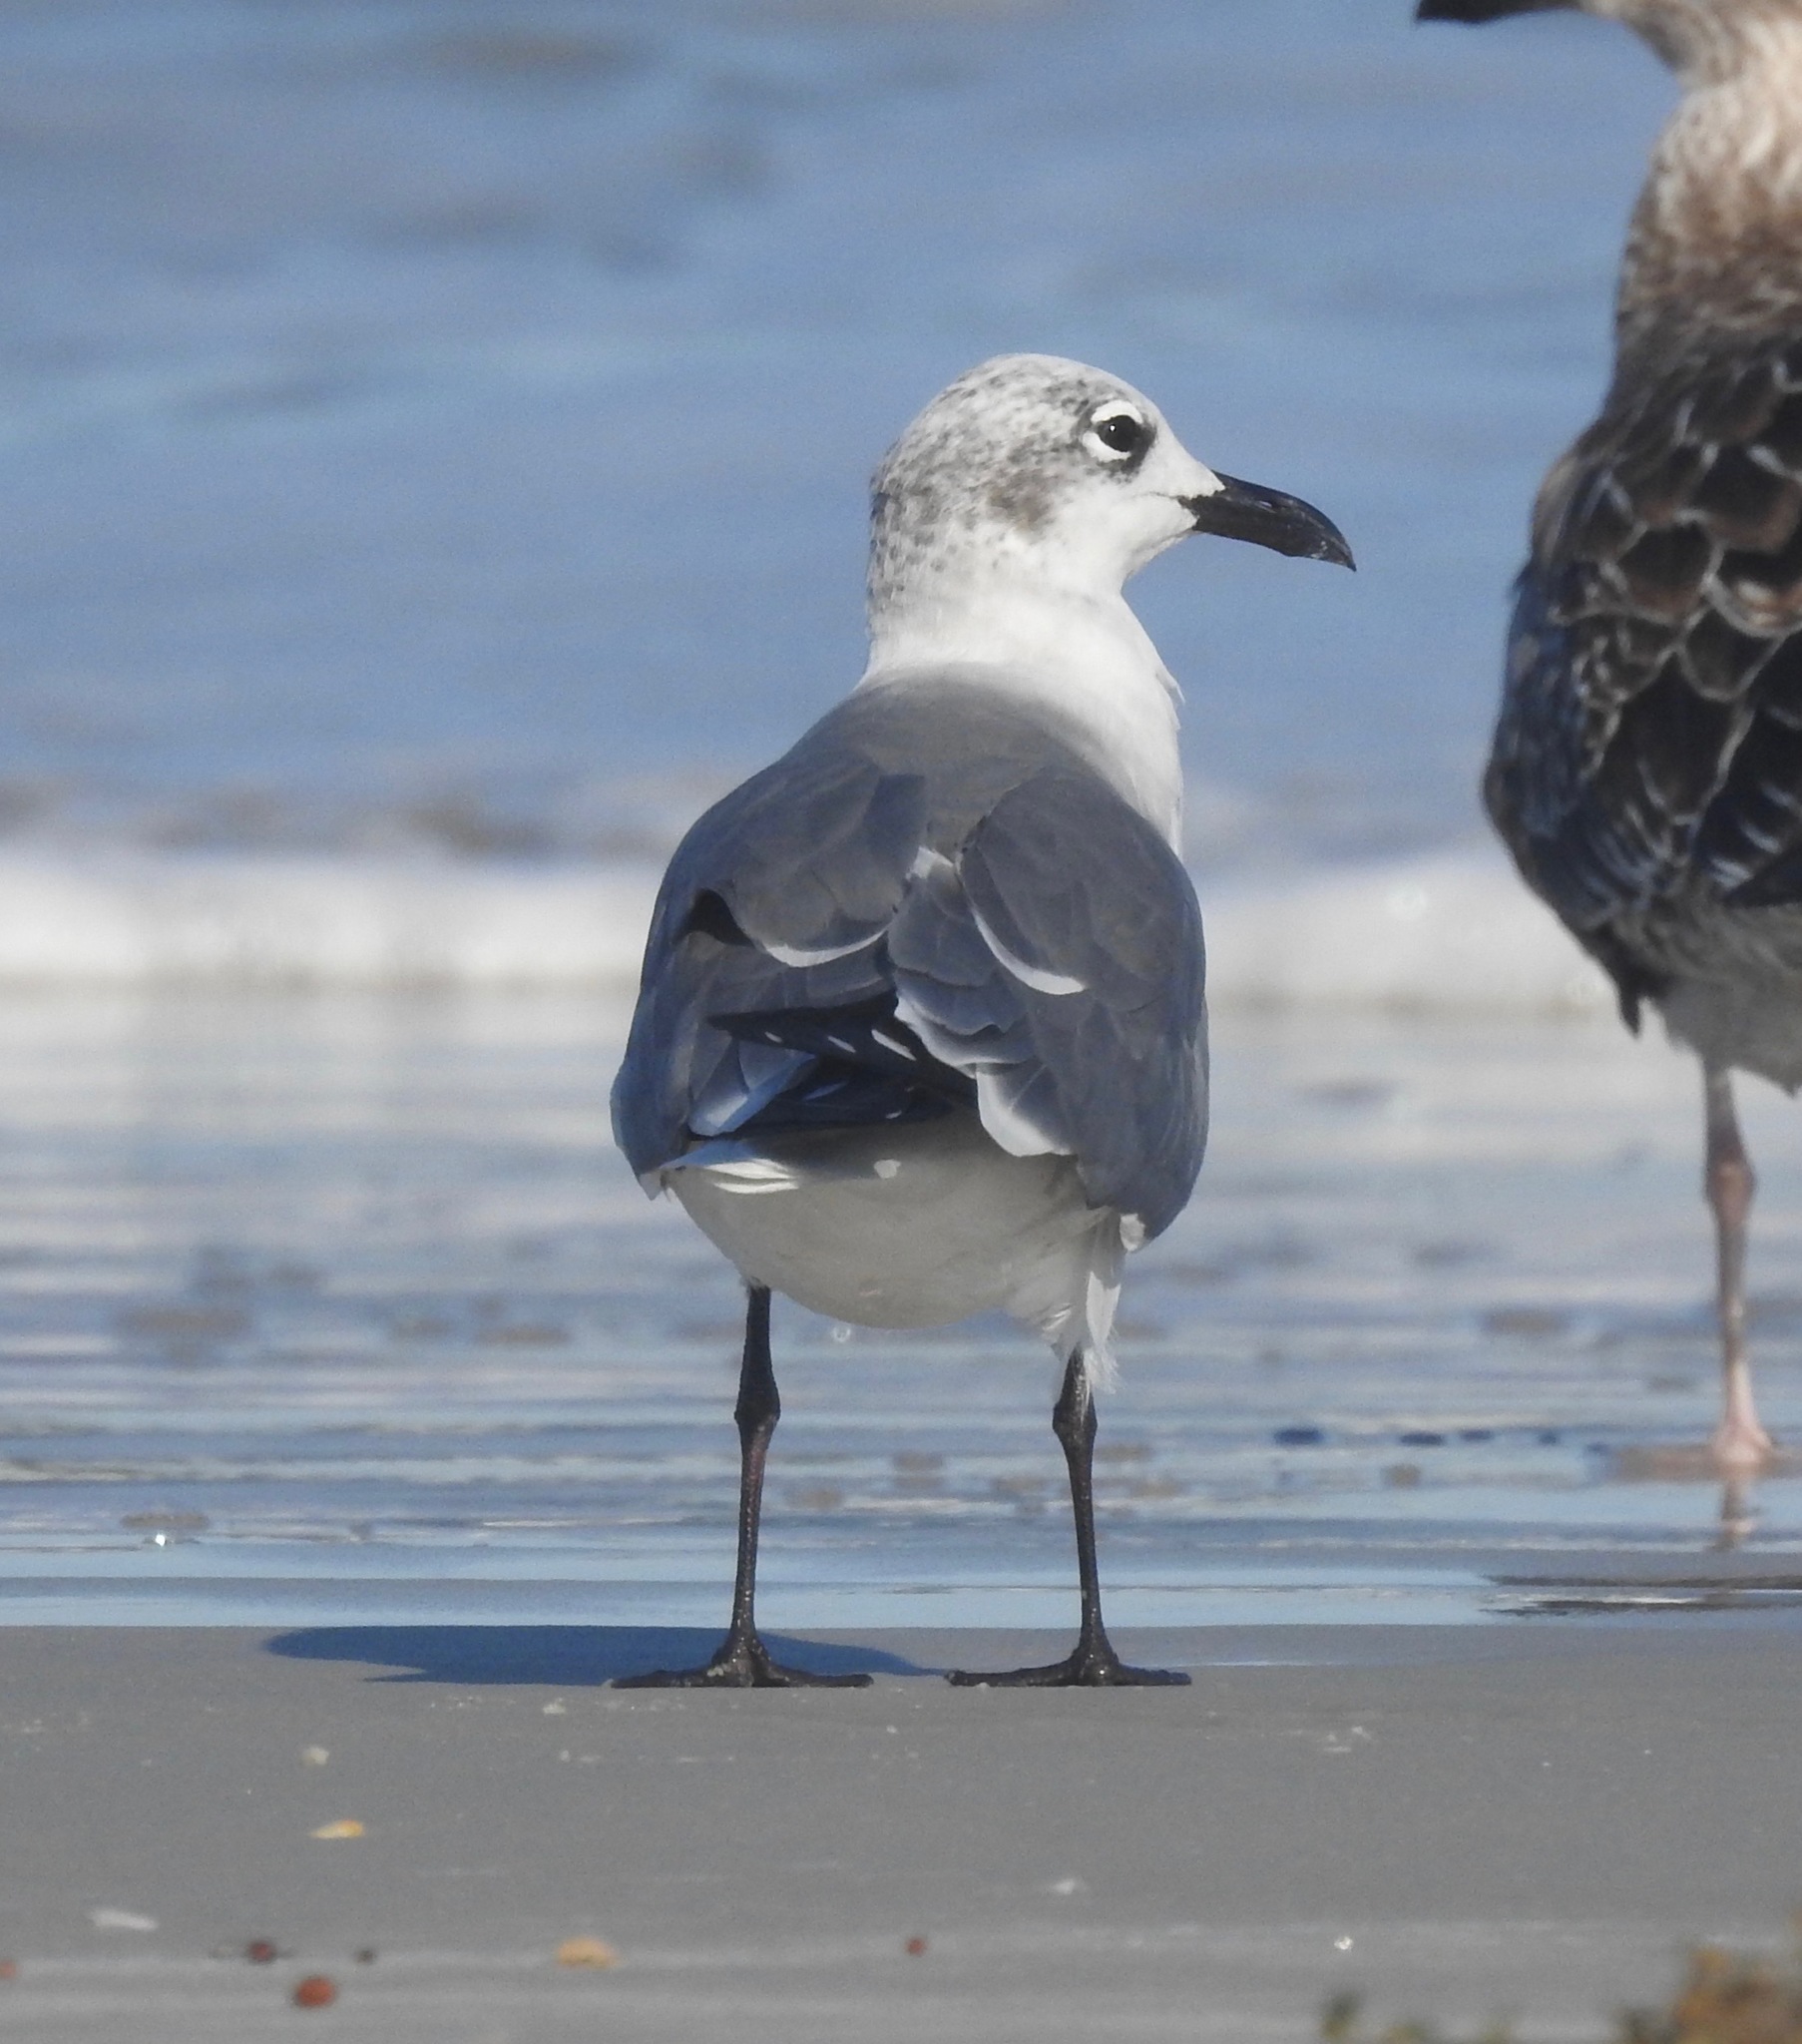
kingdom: Animalia
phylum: Chordata
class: Aves
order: Charadriiformes
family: Laridae
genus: Leucophaeus
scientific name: Leucophaeus atricilla
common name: Laughing gull
